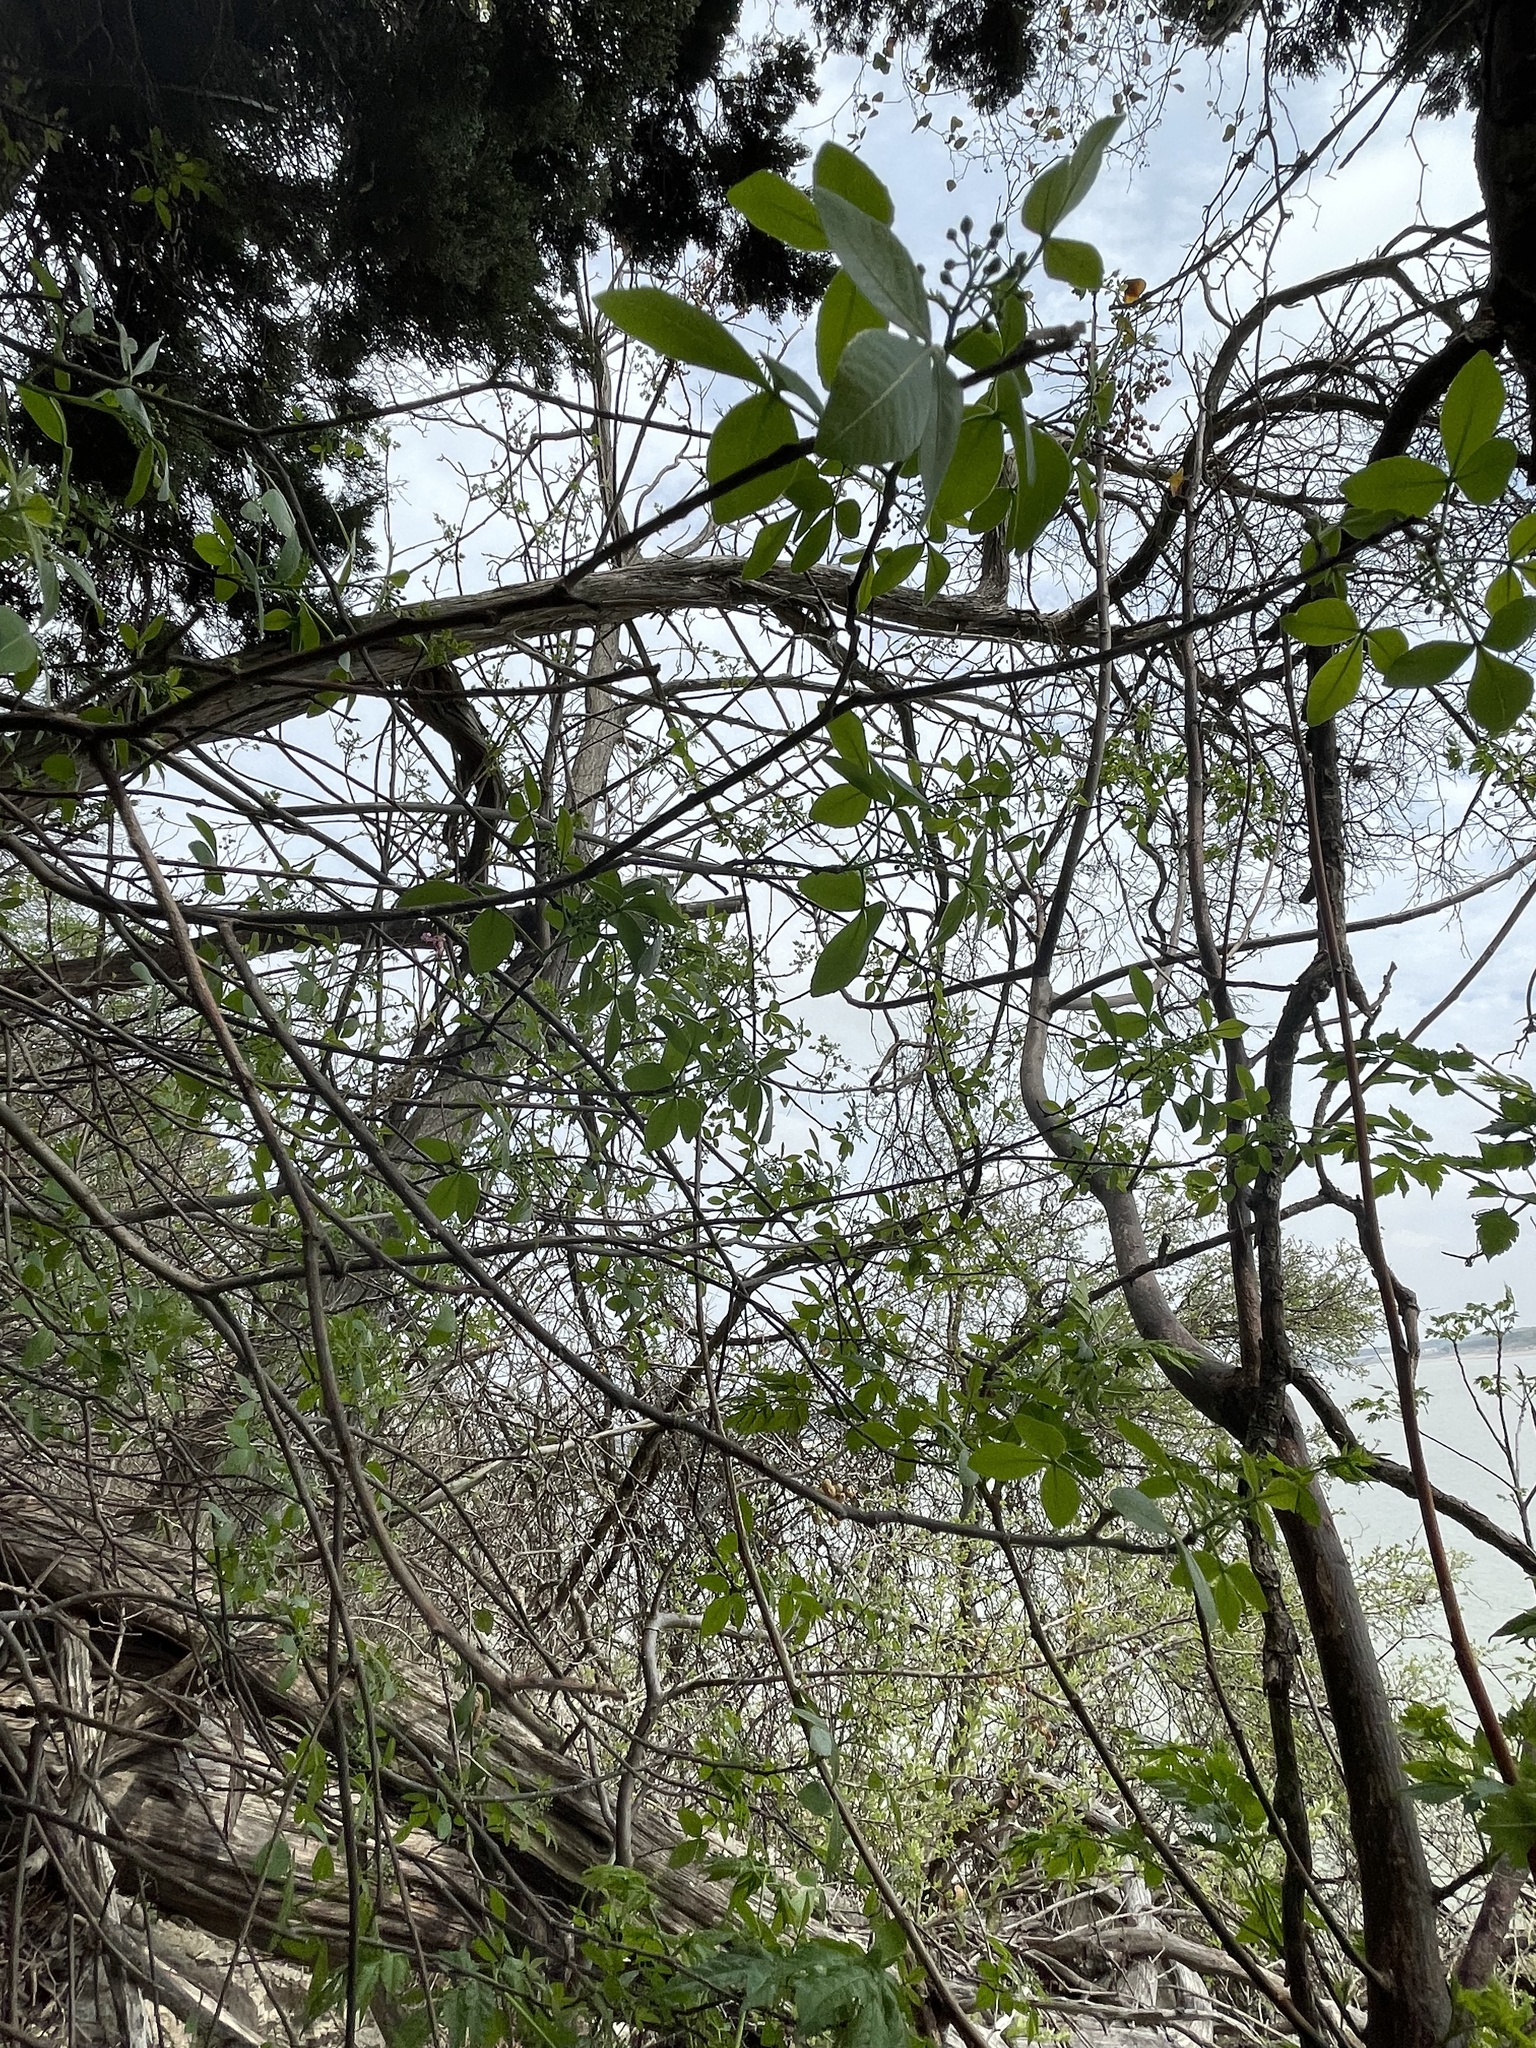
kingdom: Plantae
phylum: Tracheophyta
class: Magnoliopsida
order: Sapindales
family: Rutaceae
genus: Ptelea
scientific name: Ptelea trifoliata
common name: Common hop-tree
